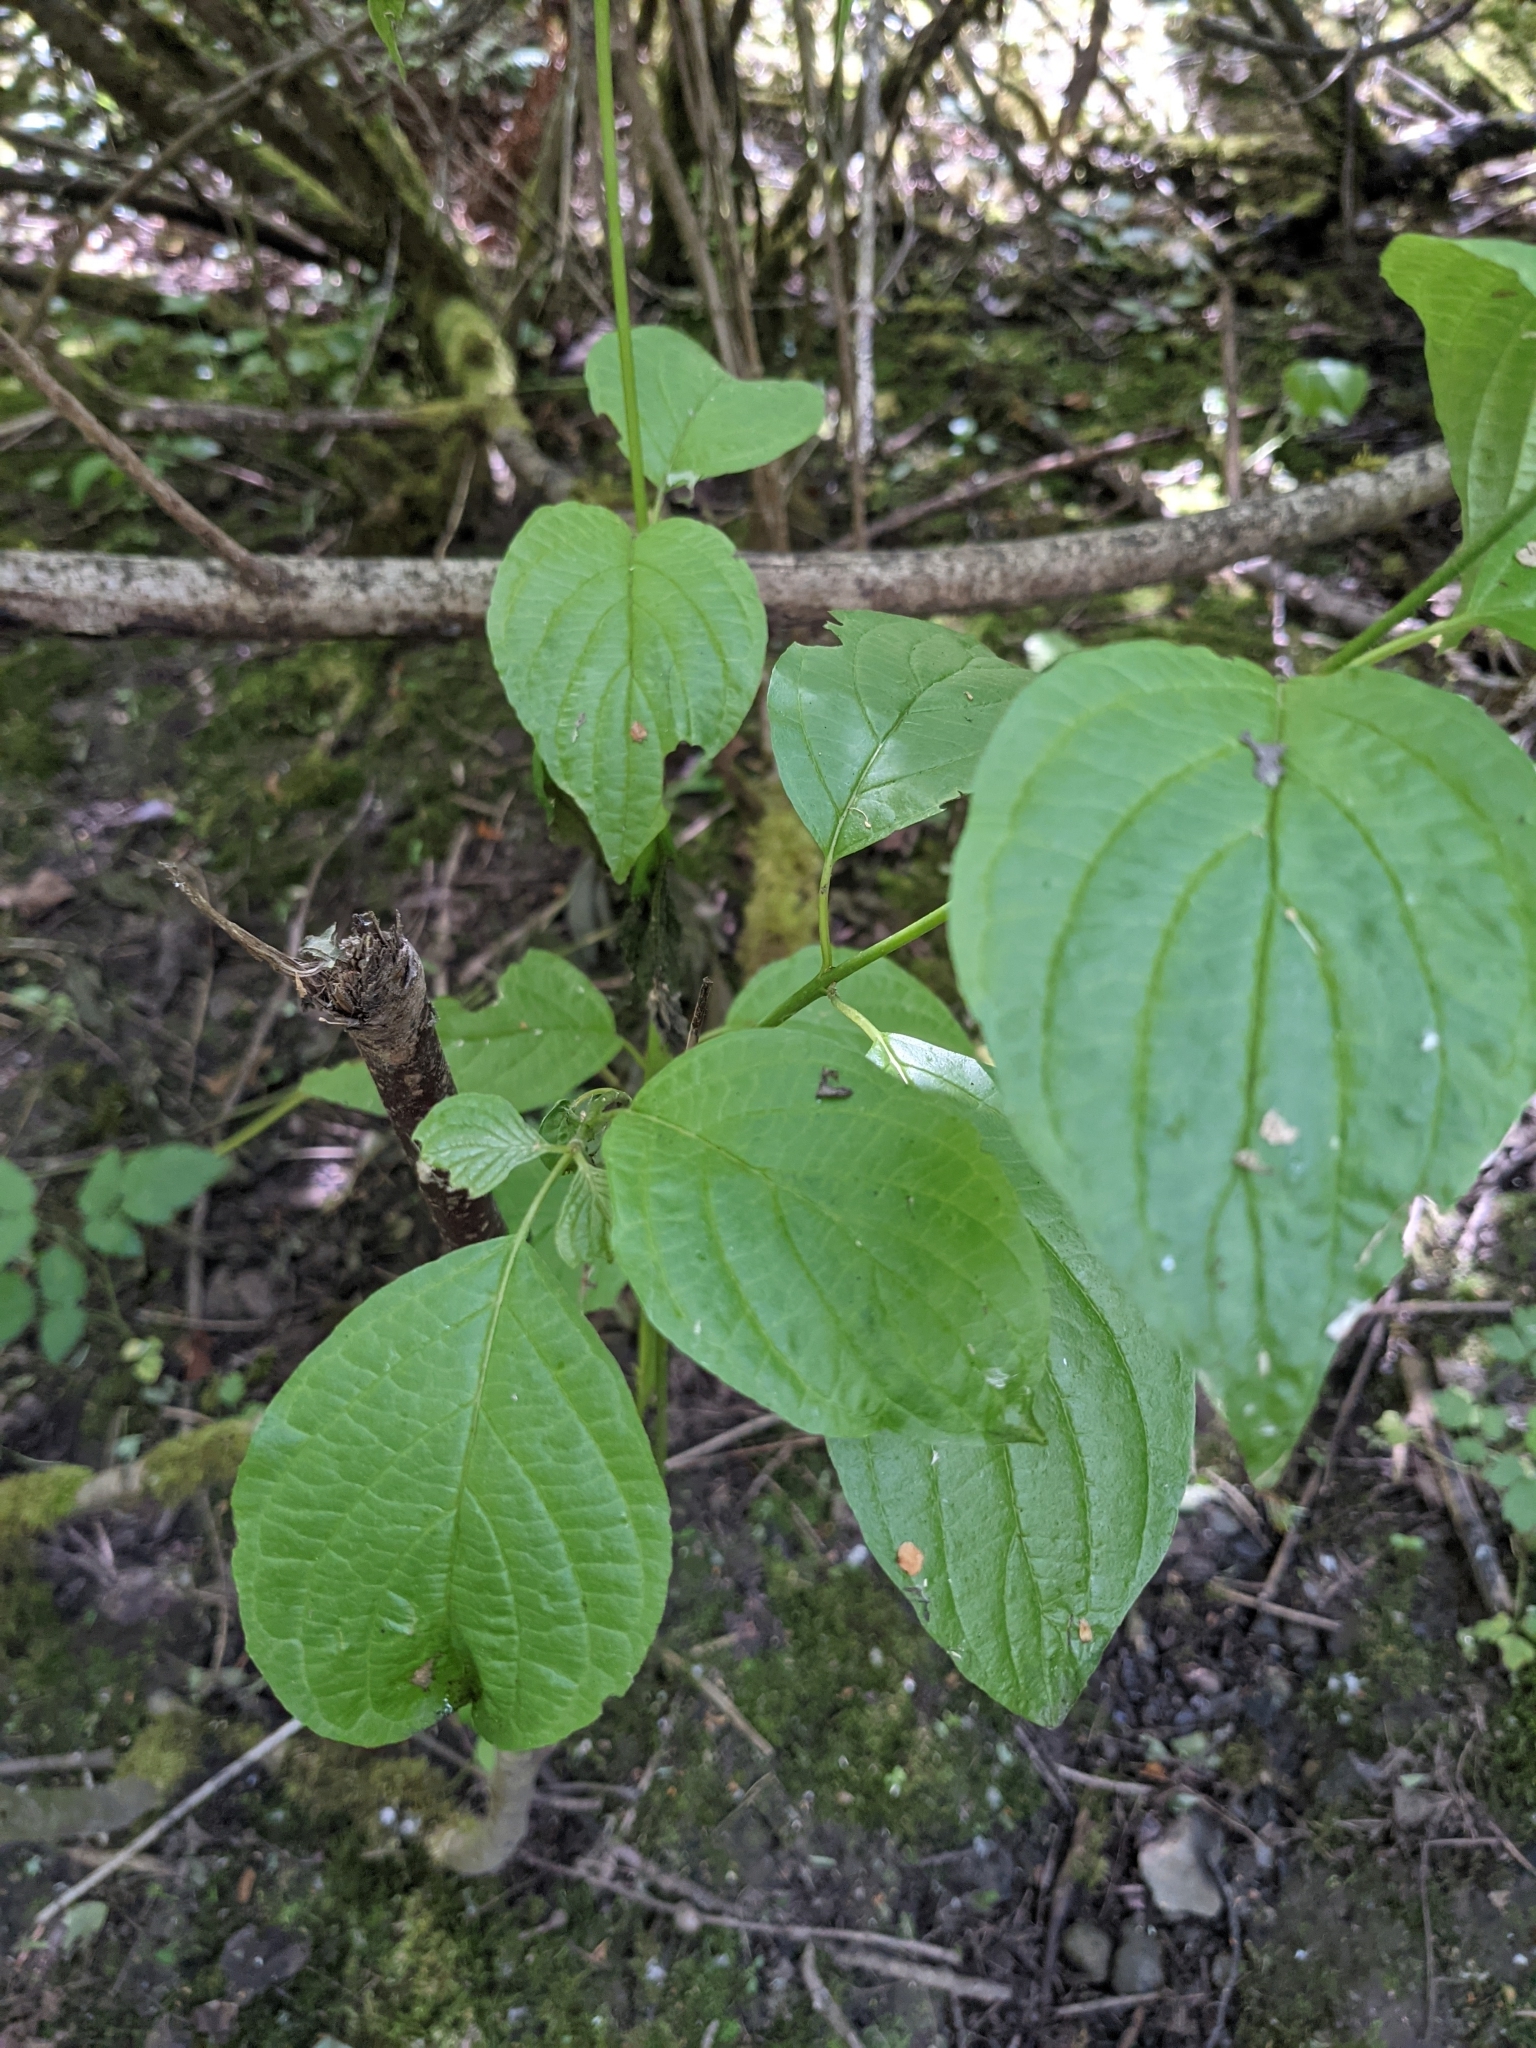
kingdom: Plantae
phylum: Tracheophyta
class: Magnoliopsida
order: Cornales
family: Cornaceae
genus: Cornus
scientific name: Cornus sericea
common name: Red-osier dogwood
